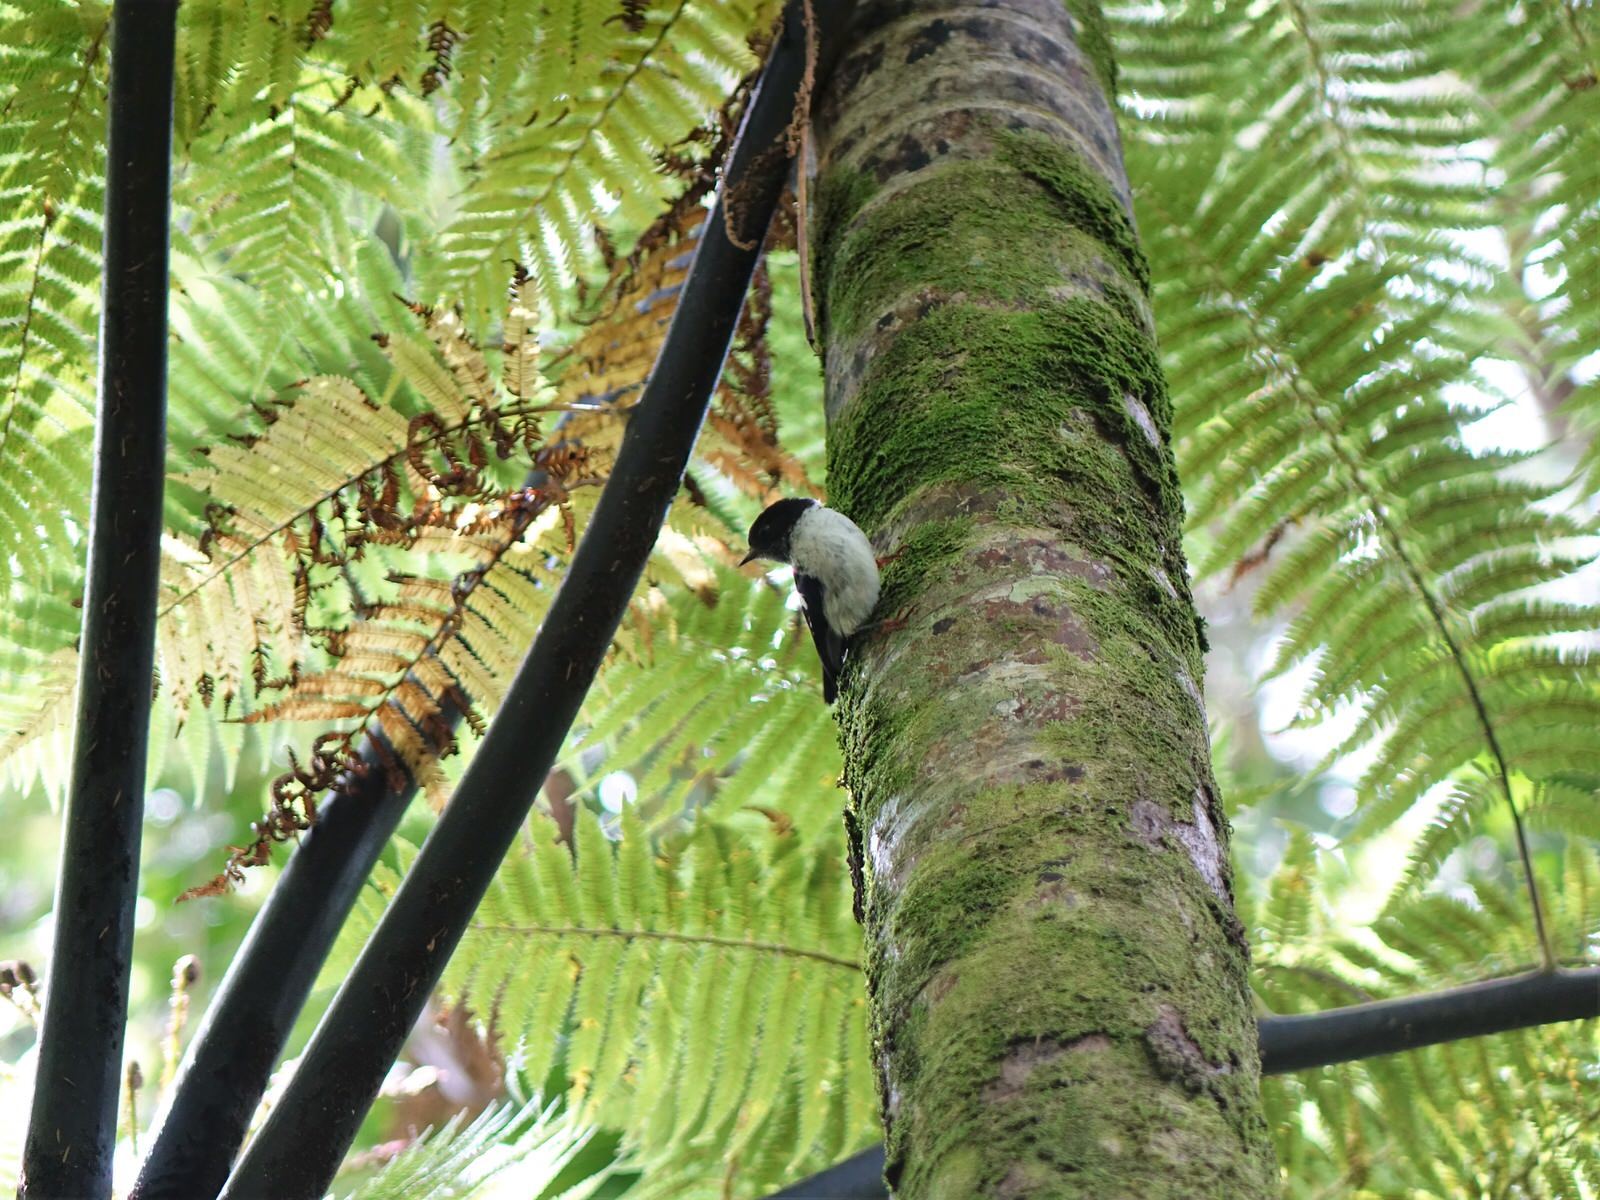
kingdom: Animalia
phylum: Chordata
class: Aves
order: Passeriformes
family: Petroicidae
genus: Petroica
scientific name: Petroica macrocephala
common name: Tomtit
